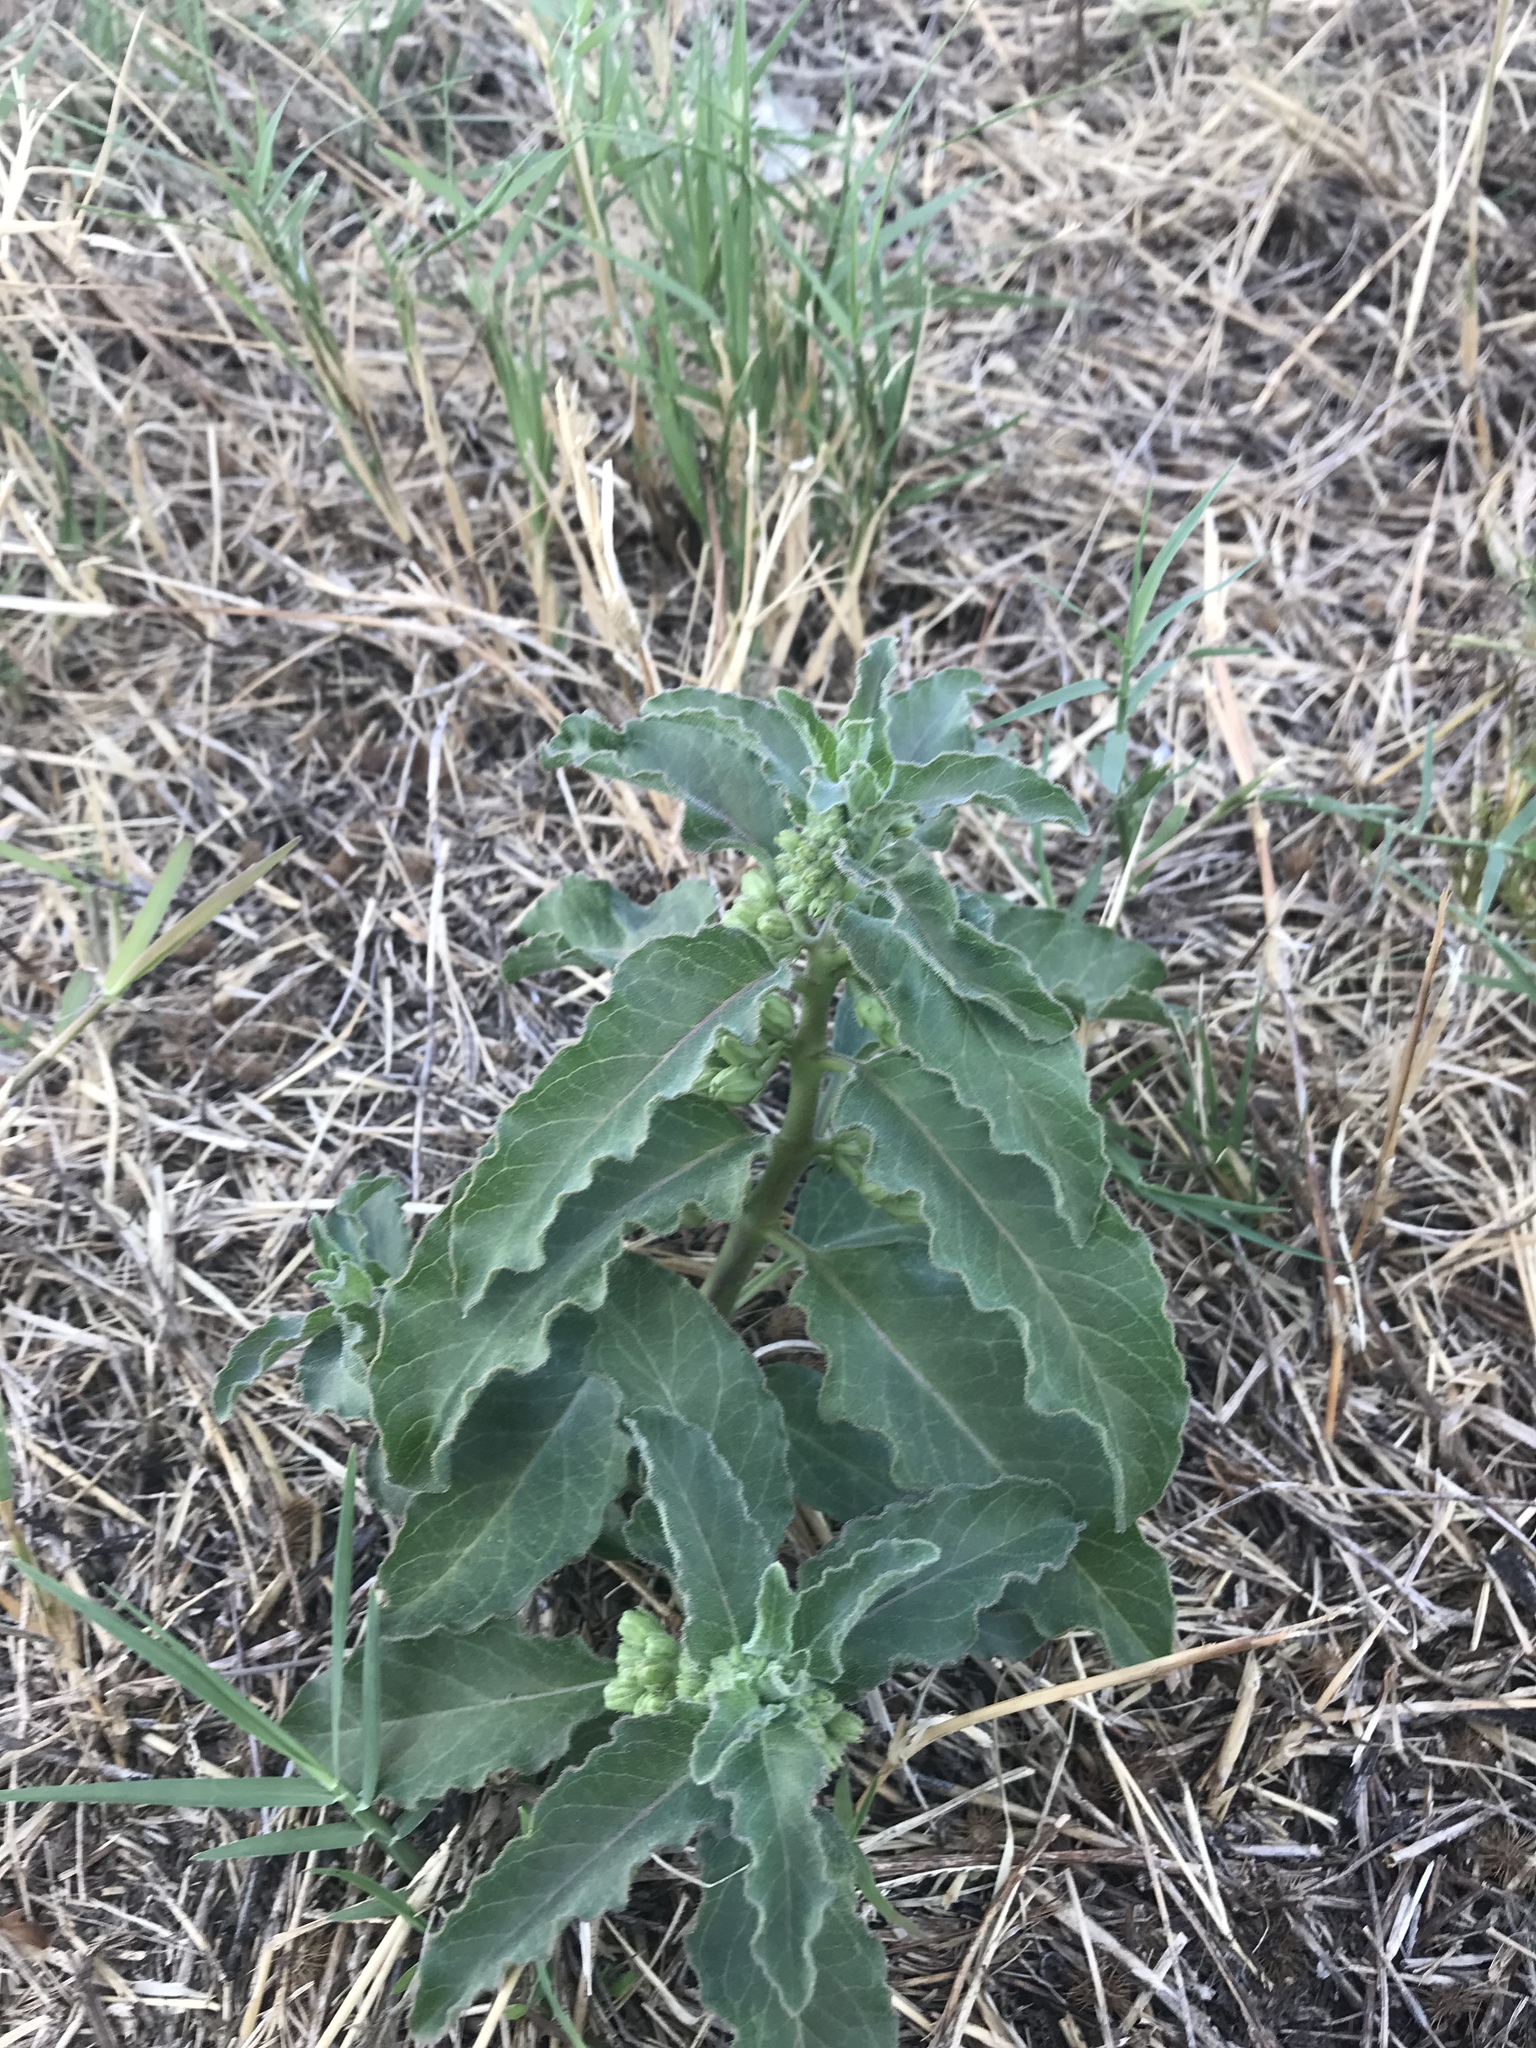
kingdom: Plantae
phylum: Tracheophyta
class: Magnoliopsida
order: Gentianales
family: Apocynaceae
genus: Asclepias
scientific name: Asclepias oenotheroides
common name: Zizotes milkweed
